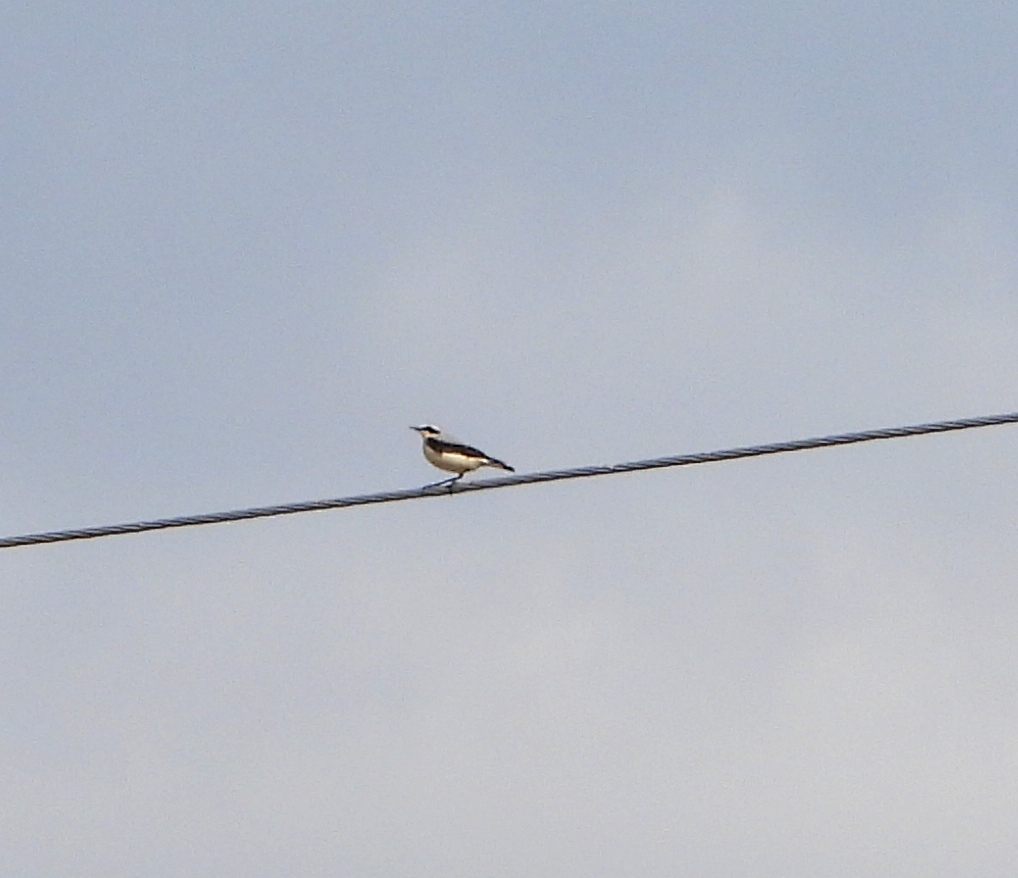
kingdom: Animalia
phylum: Chordata
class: Aves
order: Passeriformes
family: Muscicapidae
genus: Oenanthe
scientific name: Oenanthe oenanthe
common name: Northern wheatear
